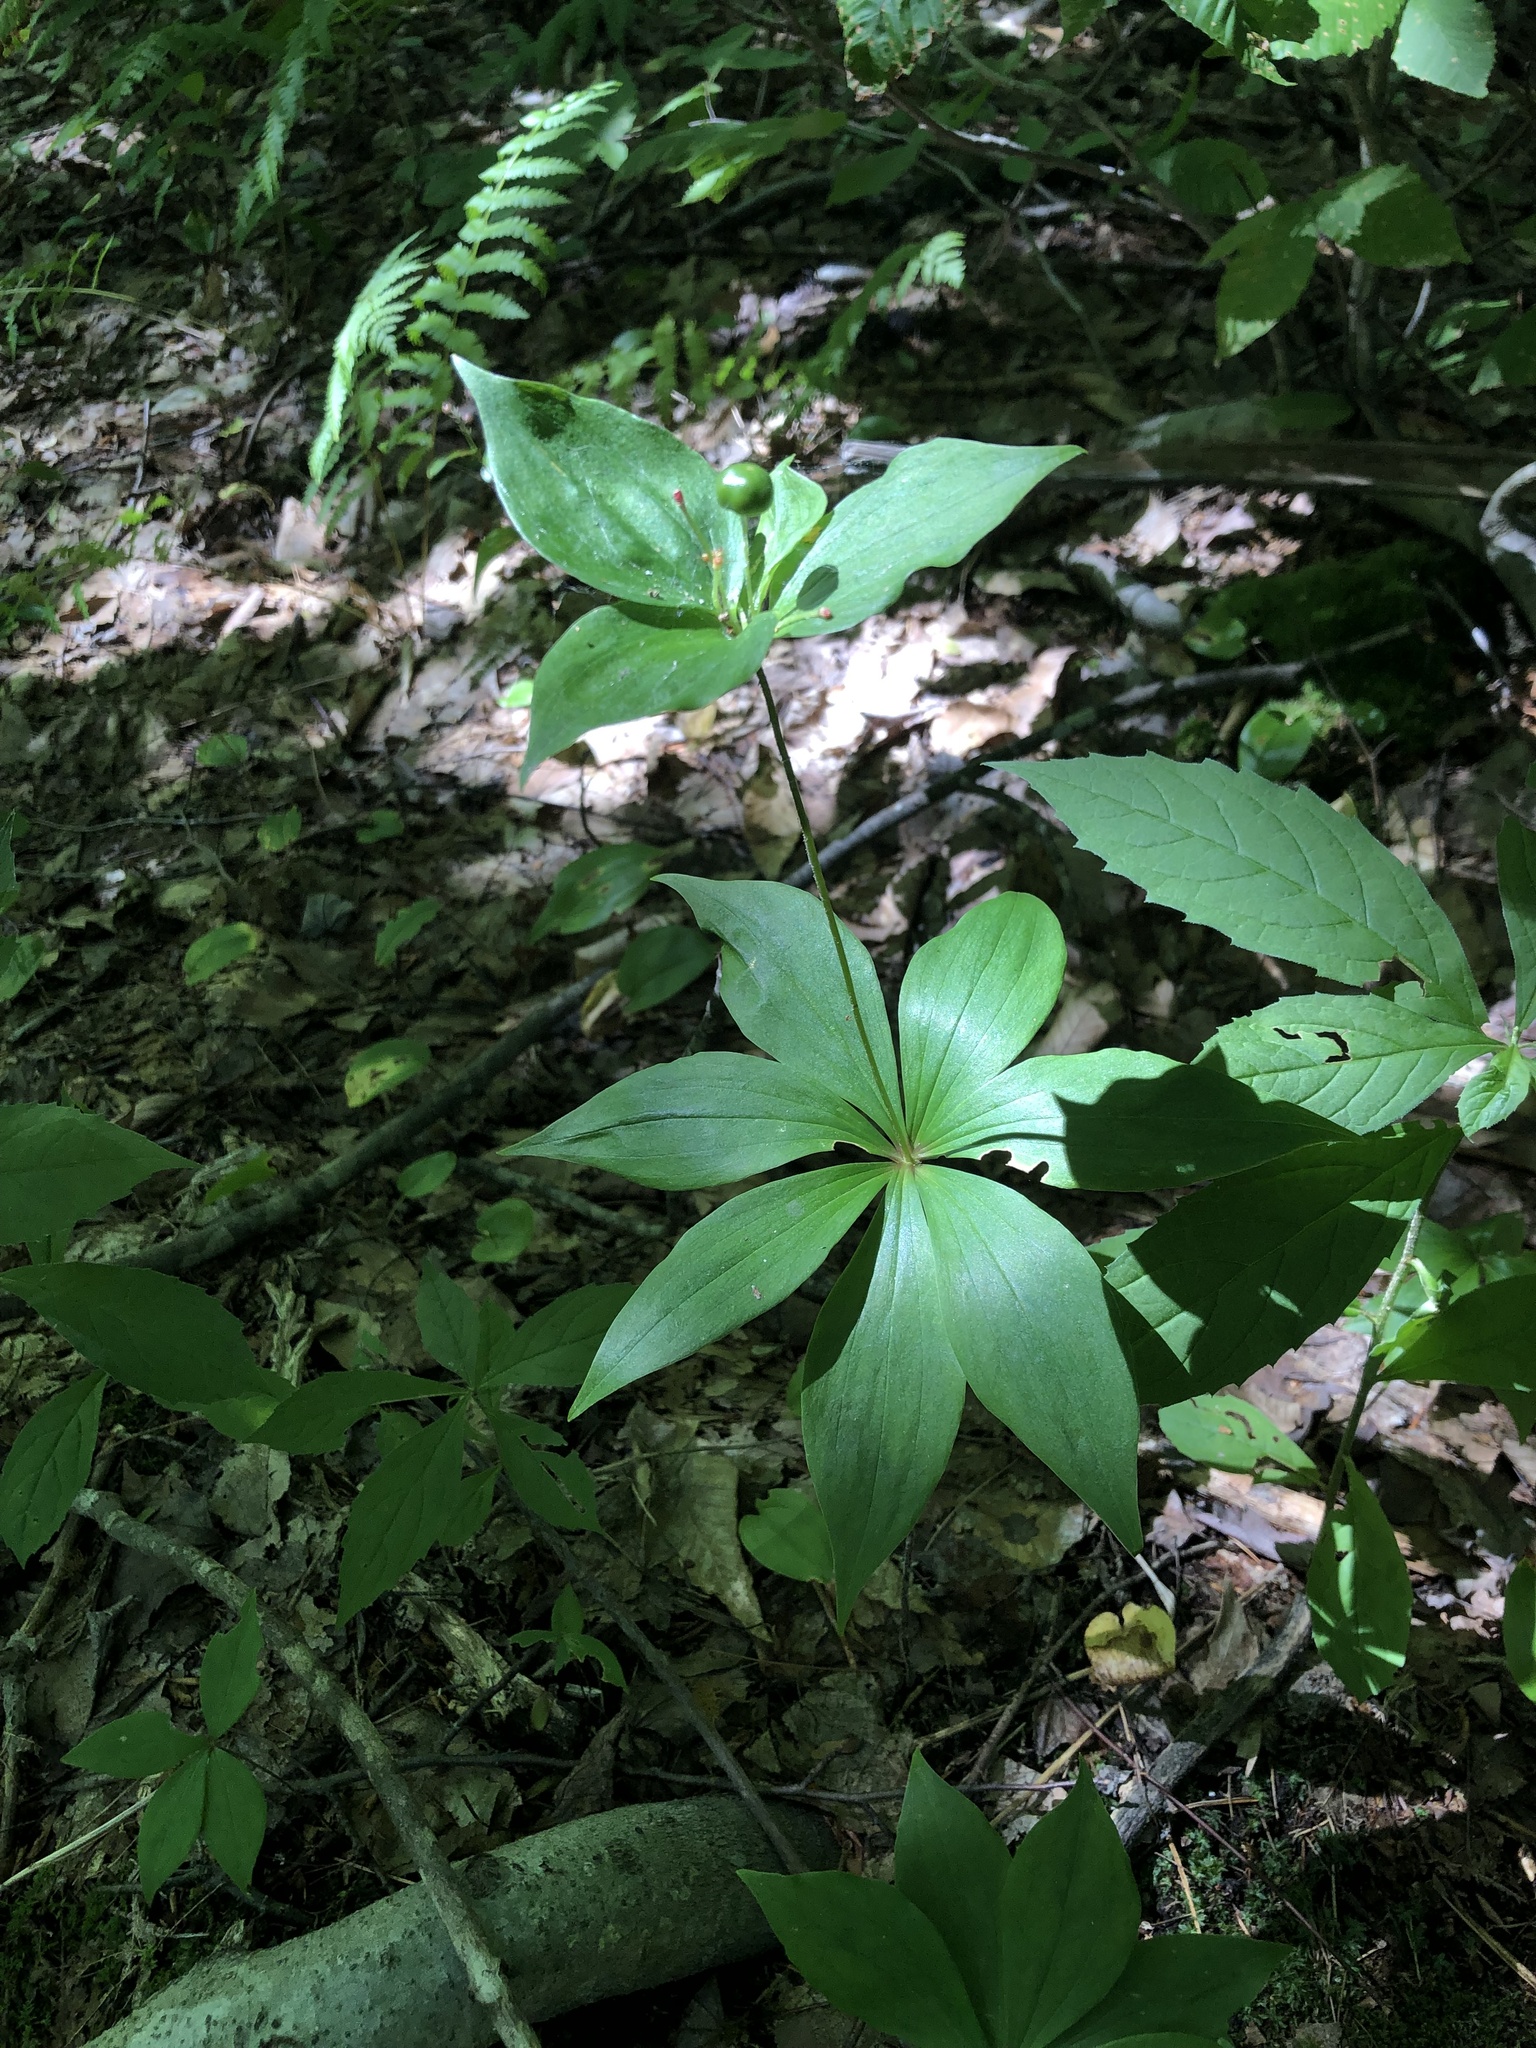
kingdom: Plantae
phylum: Tracheophyta
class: Liliopsida
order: Liliales
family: Liliaceae
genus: Medeola
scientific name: Medeola virginiana
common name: Indian cucumber-root
